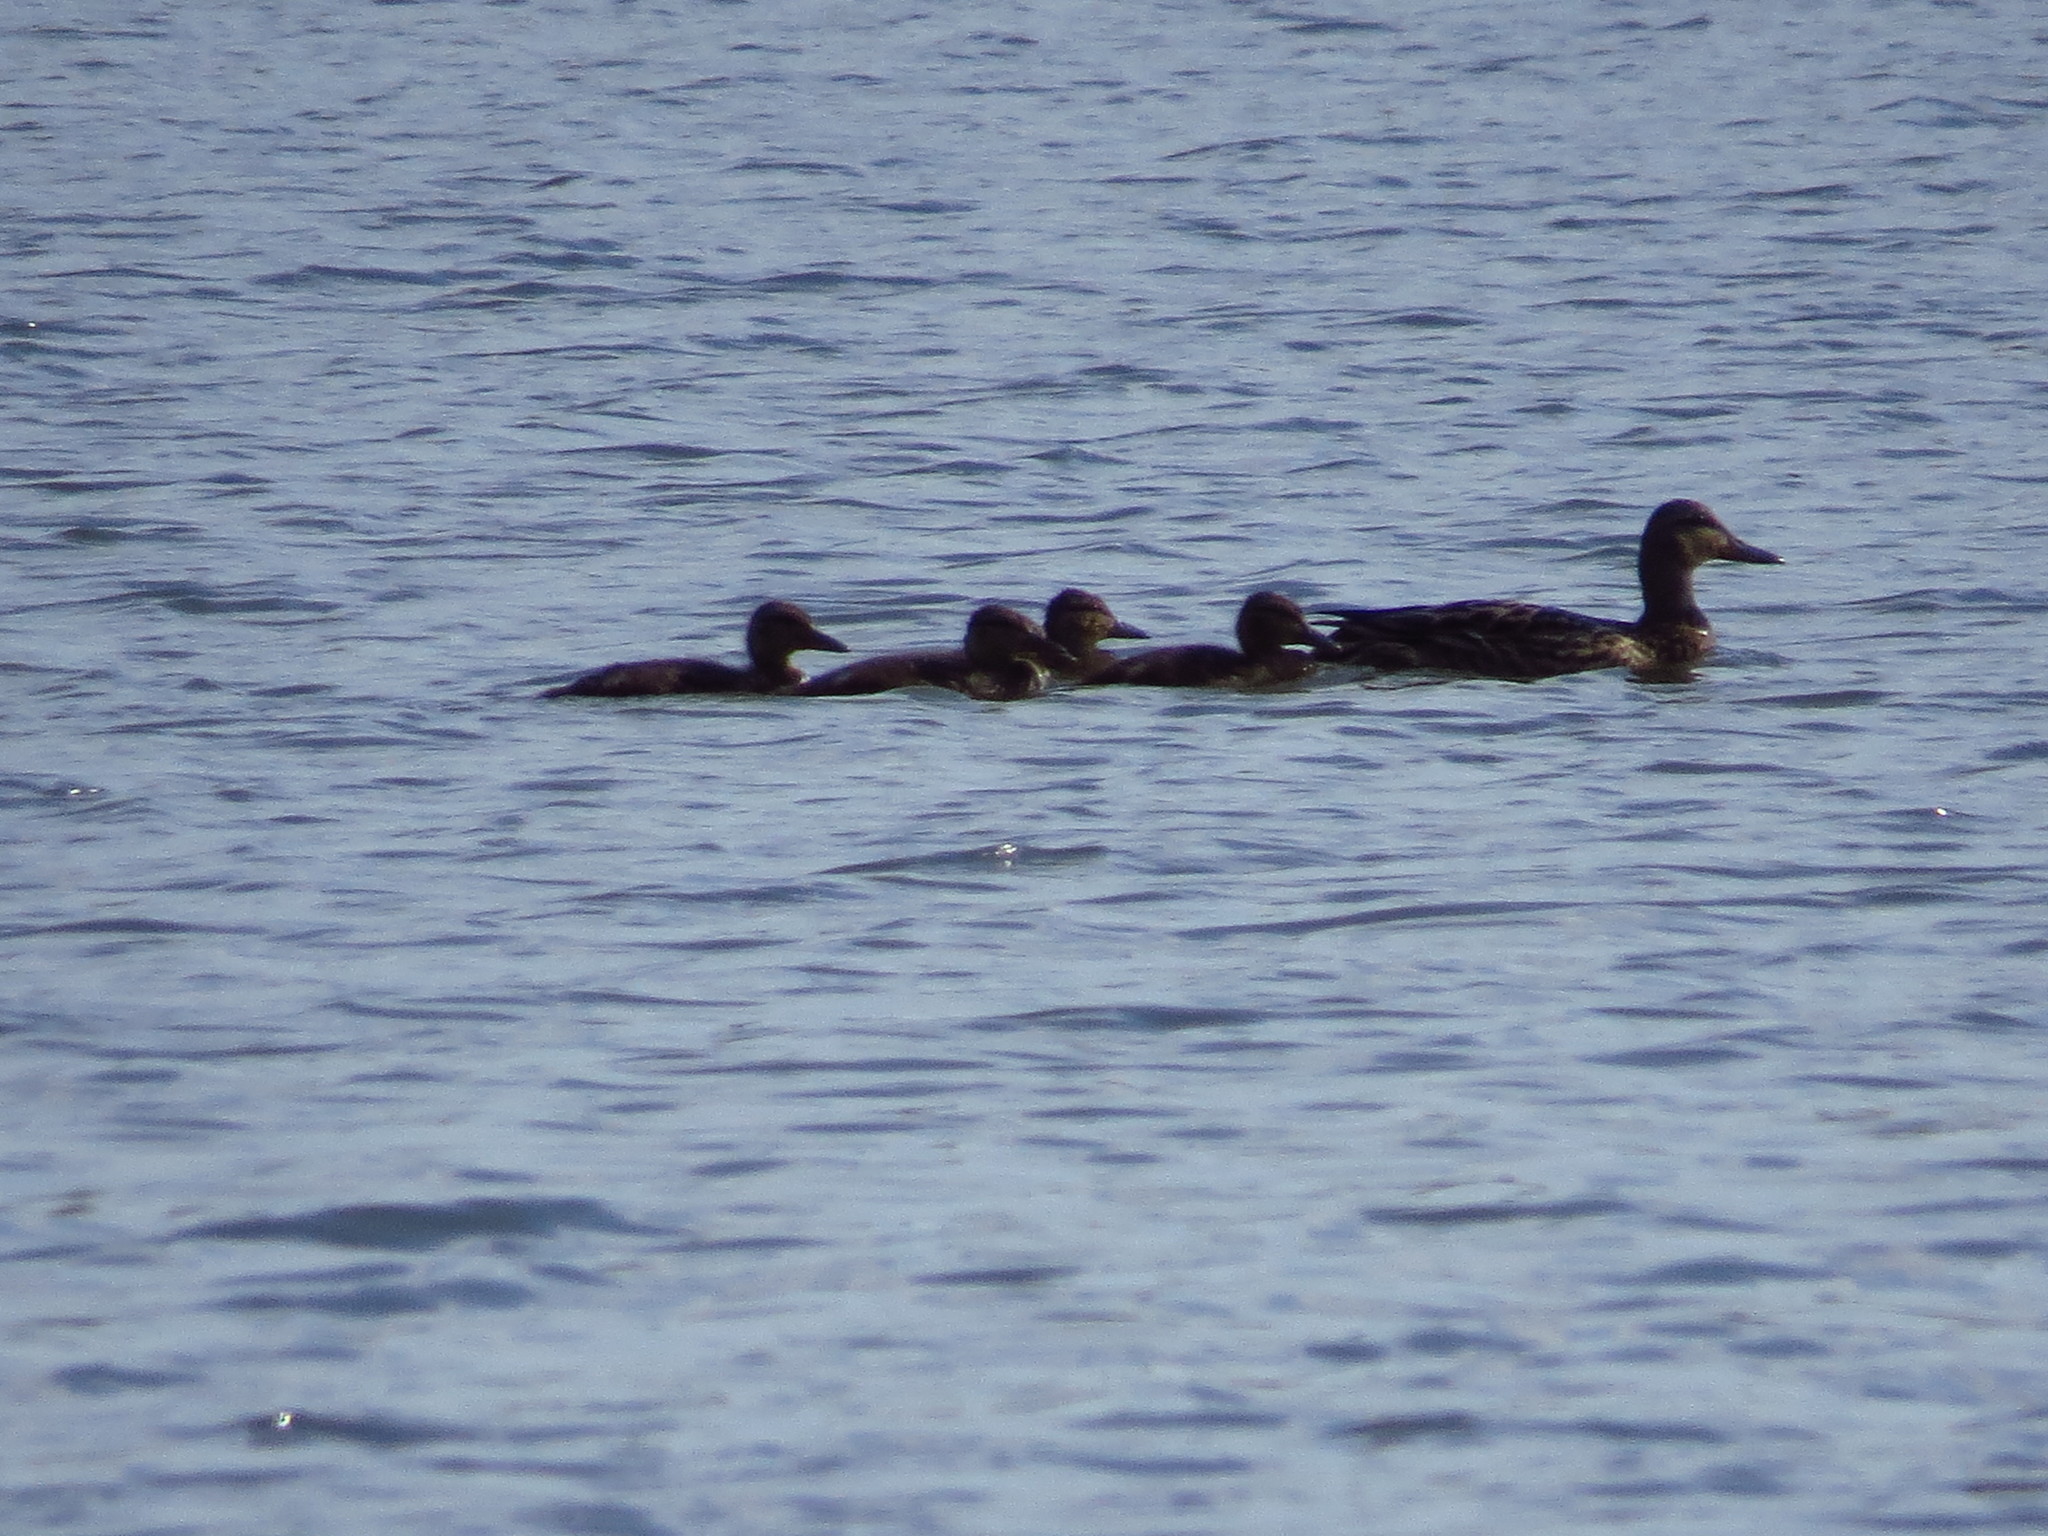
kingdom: Animalia
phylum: Chordata
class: Aves
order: Anseriformes
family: Anatidae
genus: Anas
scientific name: Anas platyrhynchos
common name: Mallard
